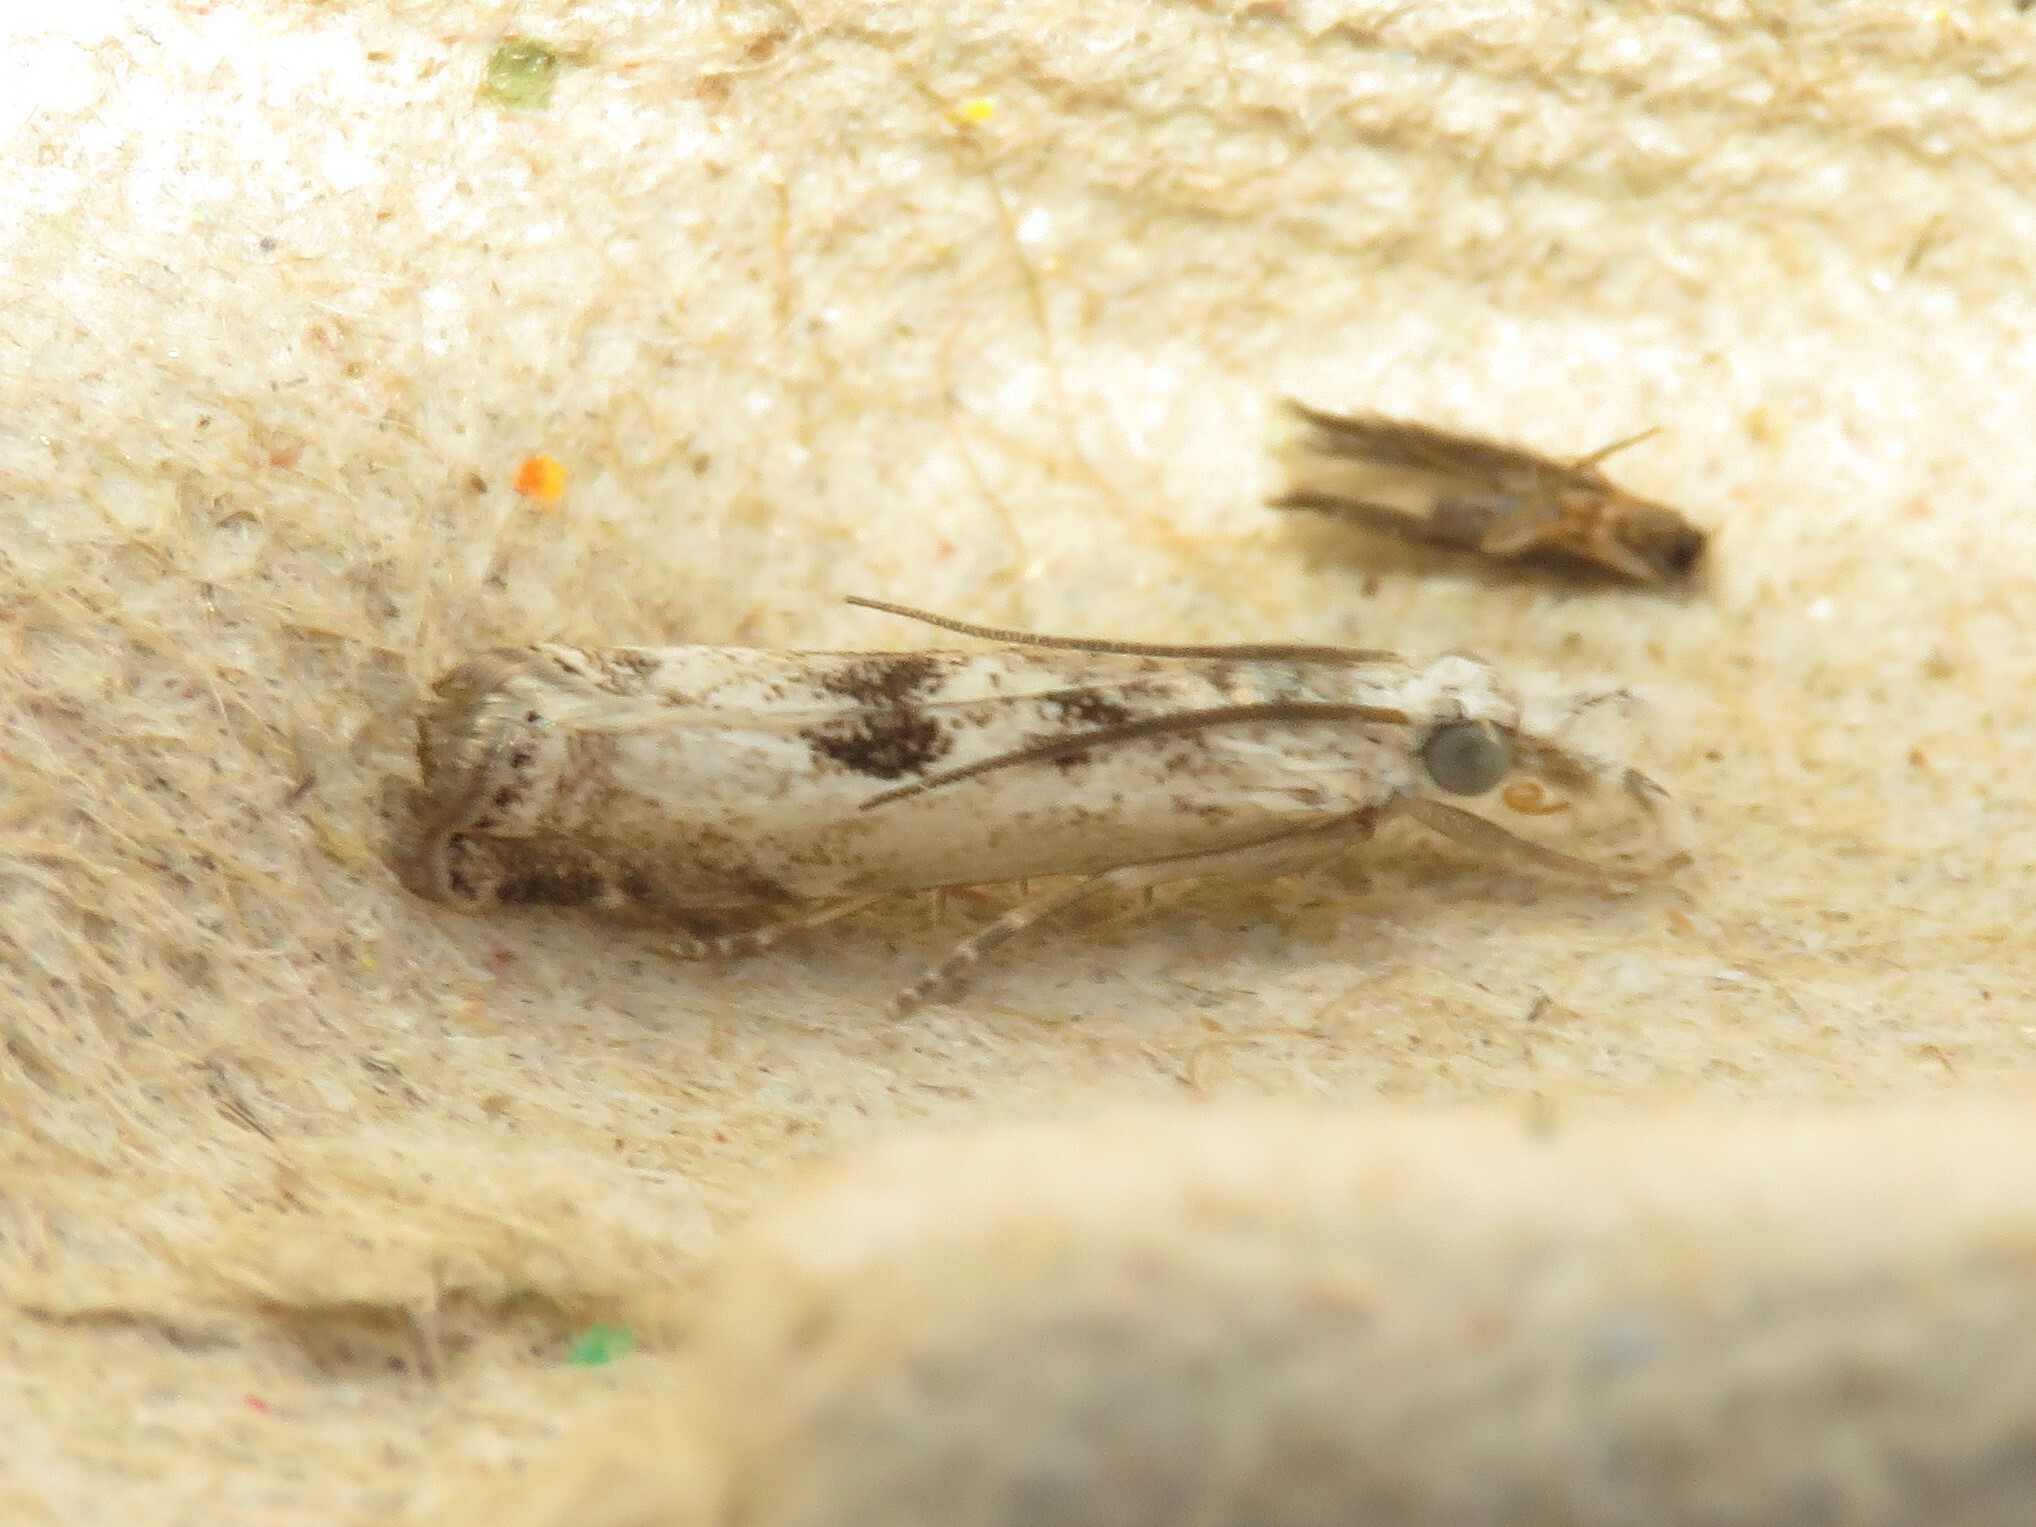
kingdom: Animalia
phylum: Arthropoda
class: Insecta
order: Lepidoptera
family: Crambidae
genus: Microcrambus
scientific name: Microcrambus immunellus
